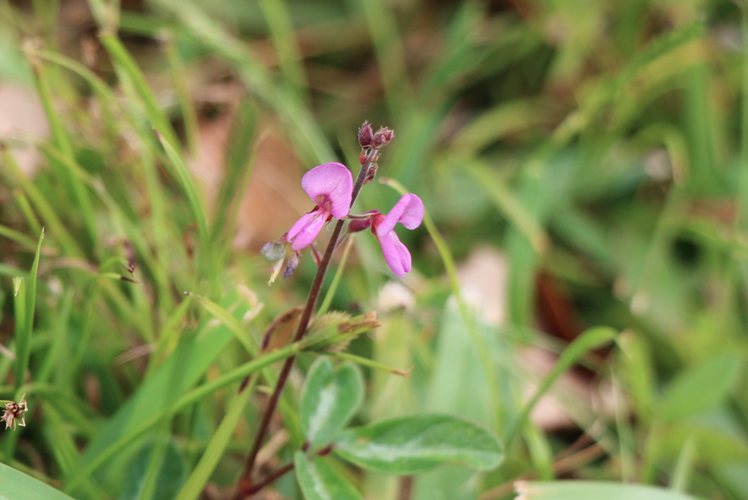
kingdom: Plantae
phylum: Tracheophyta
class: Magnoliopsida
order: Fabales
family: Fabaceae
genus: Desmodium
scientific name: Desmodium paniculatum
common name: Panicled tick-clover
